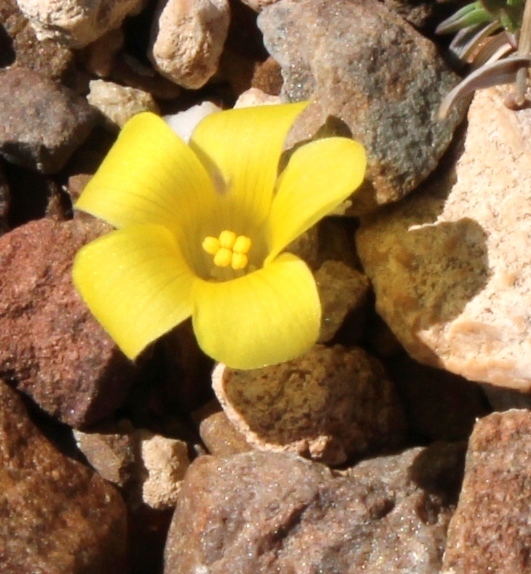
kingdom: Plantae
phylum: Tracheophyta
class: Magnoliopsida
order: Oxalidales
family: Oxalidaceae
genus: Oxalis
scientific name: Oxalis melanosticta
